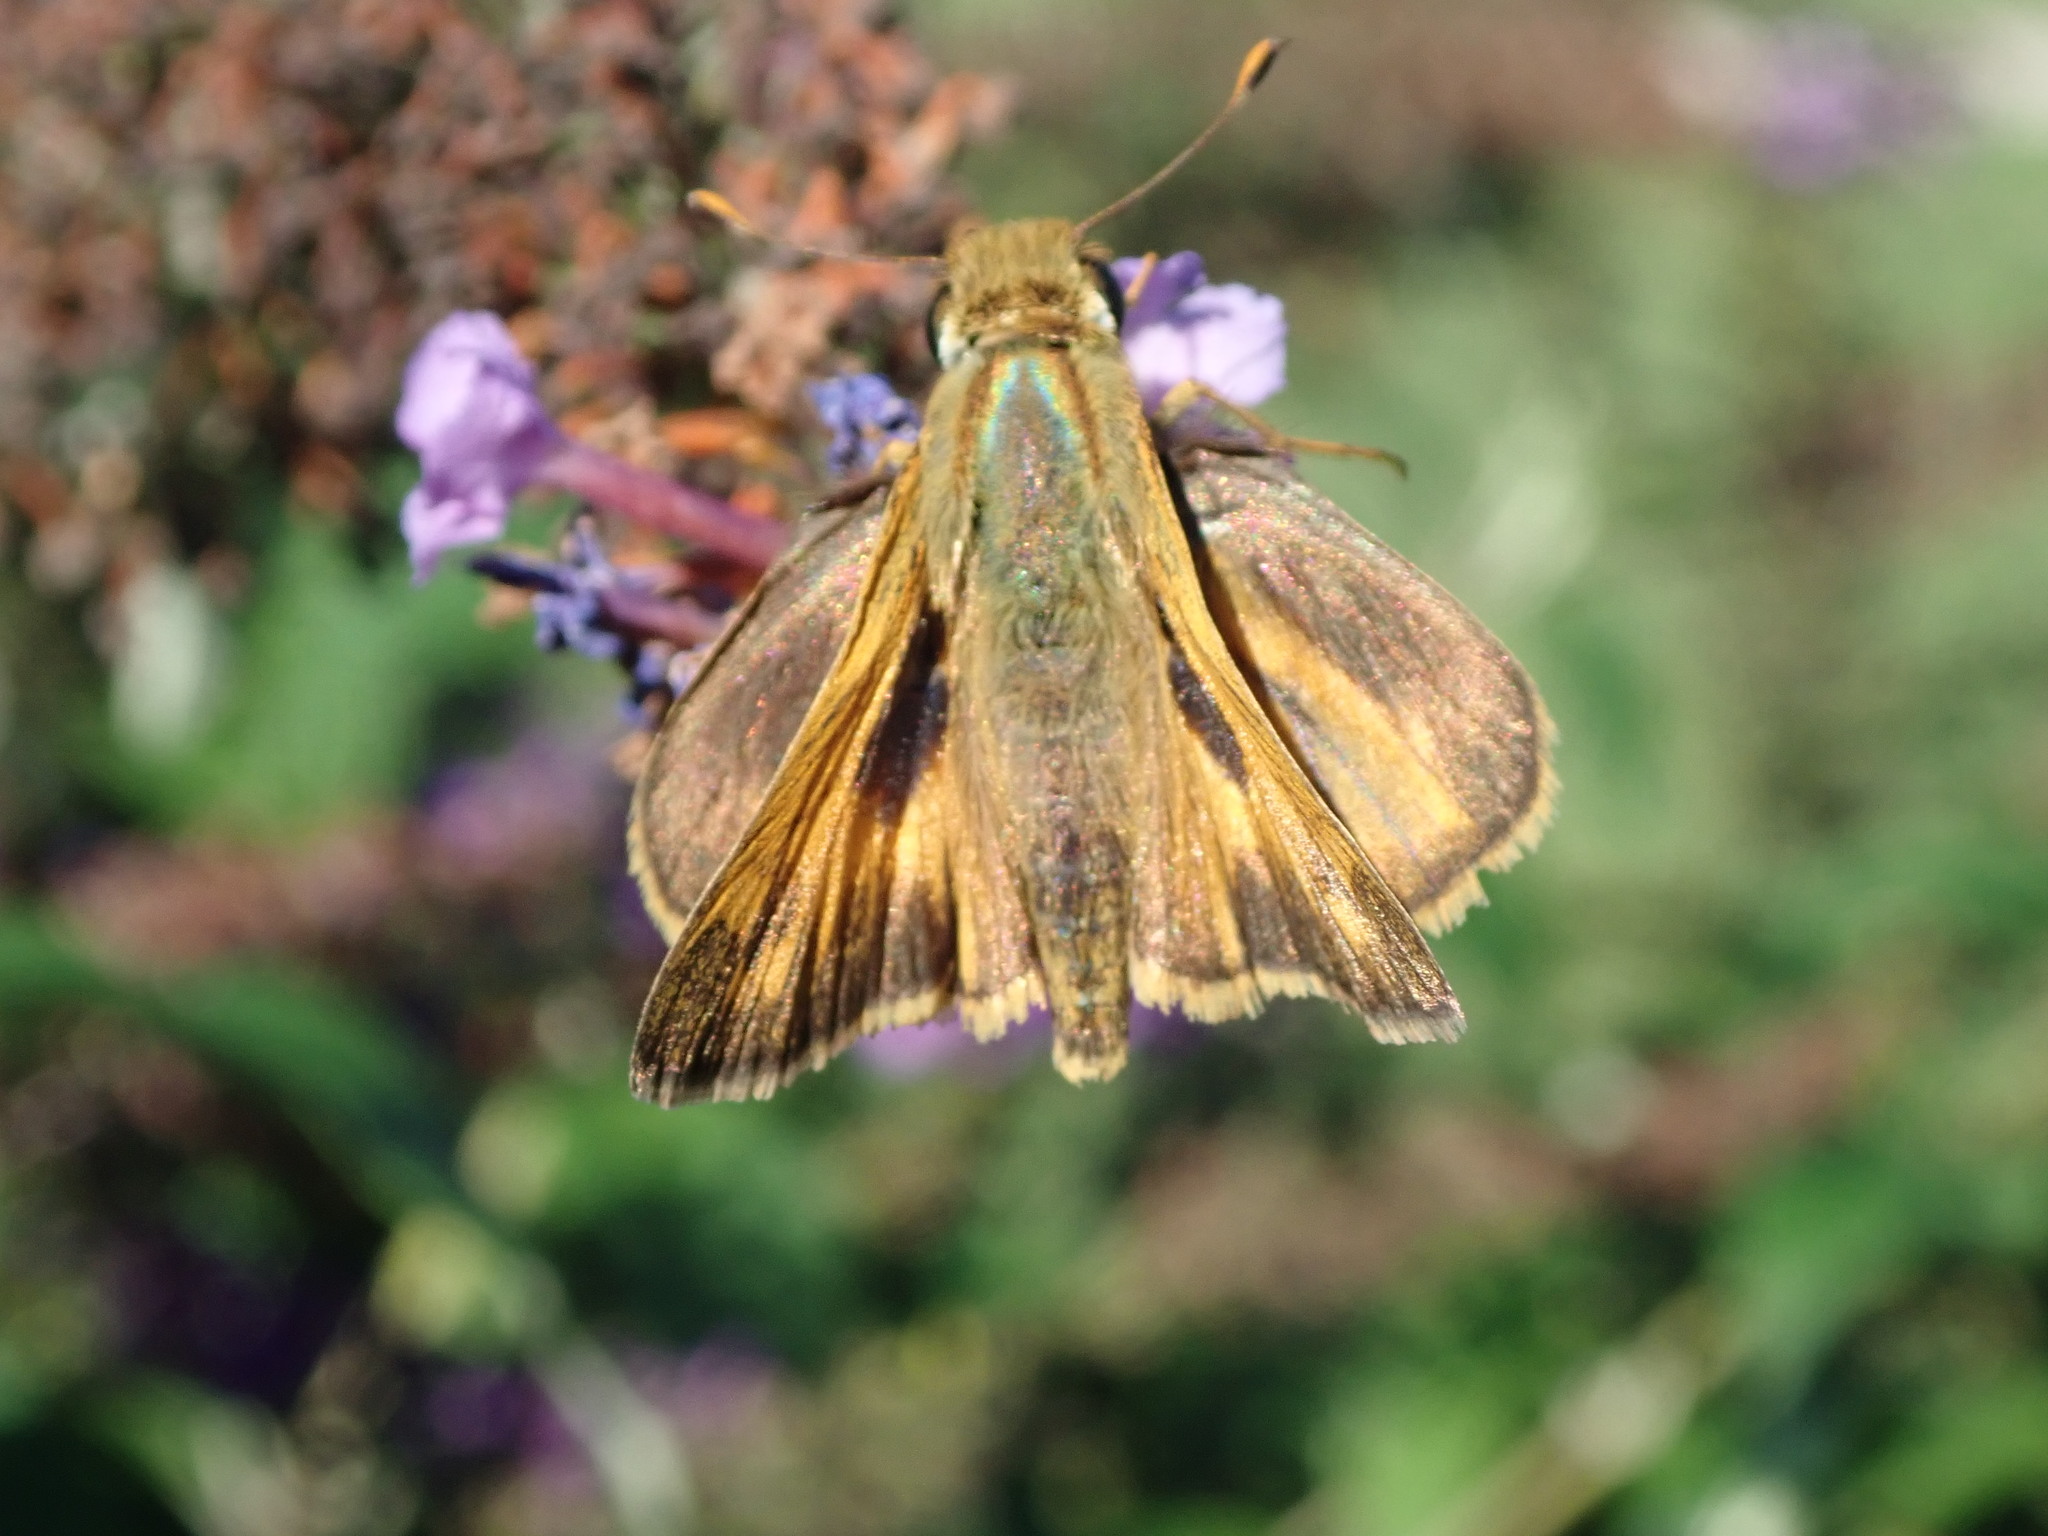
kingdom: Animalia
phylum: Arthropoda
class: Insecta
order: Lepidoptera
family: Hesperiidae
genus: Atalopedes
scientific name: Atalopedes
